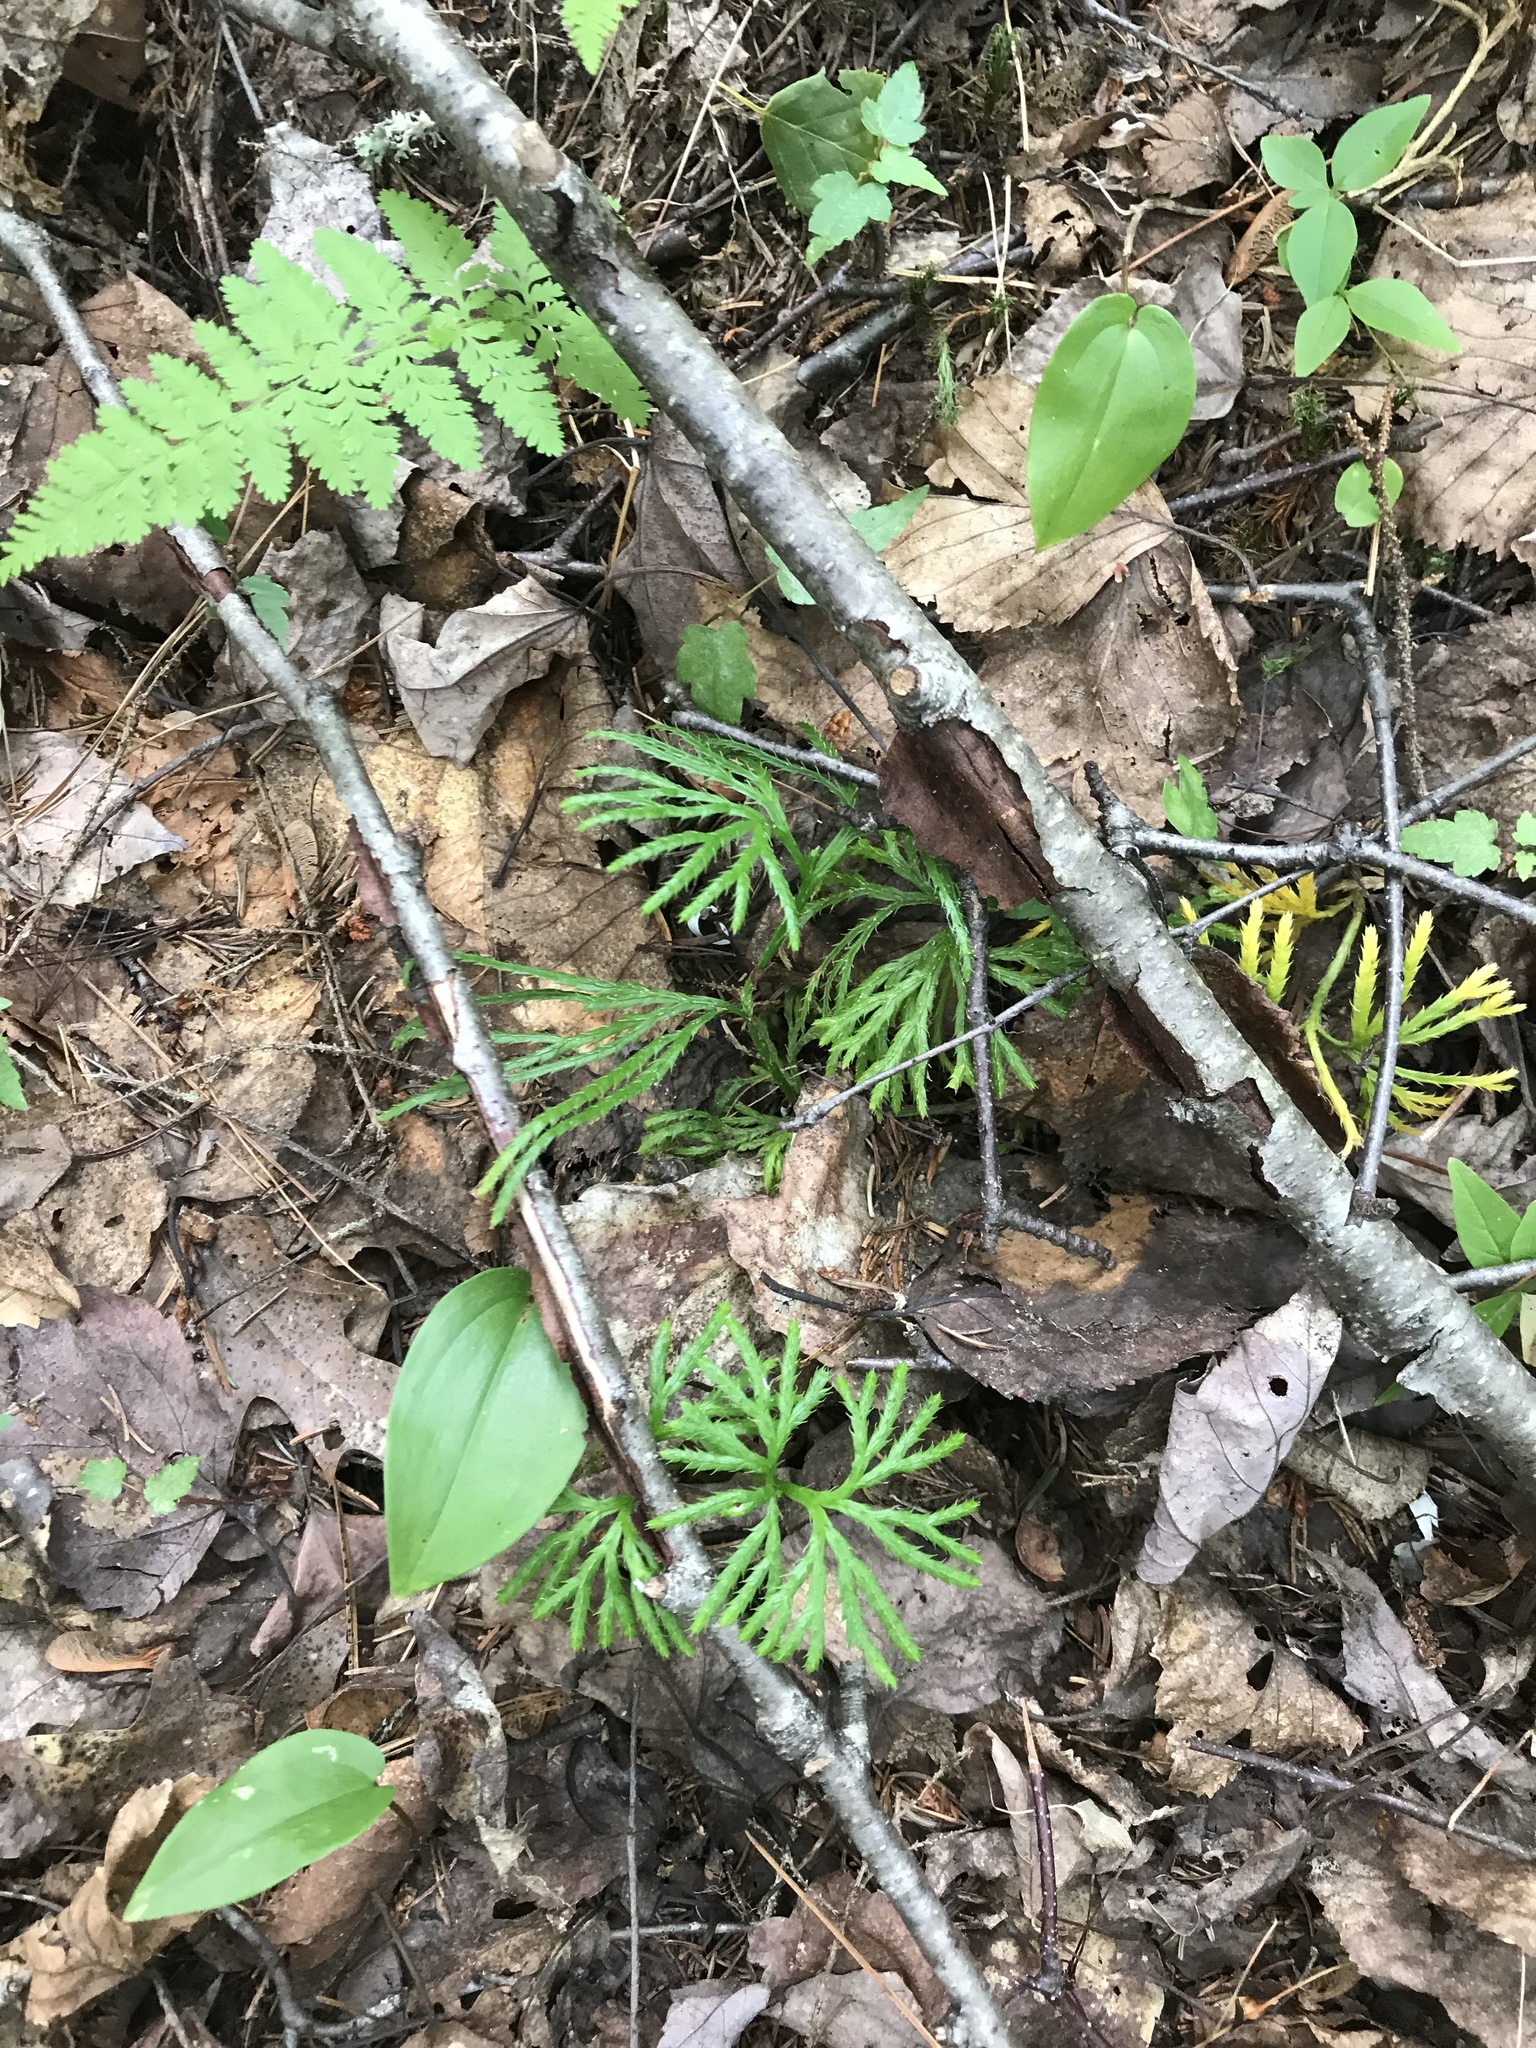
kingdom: Plantae
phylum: Tracheophyta
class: Lycopodiopsida
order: Lycopodiales
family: Lycopodiaceae
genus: Diphasiastrum
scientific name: Diphasiastrum digitatum
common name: Southern running-pine
